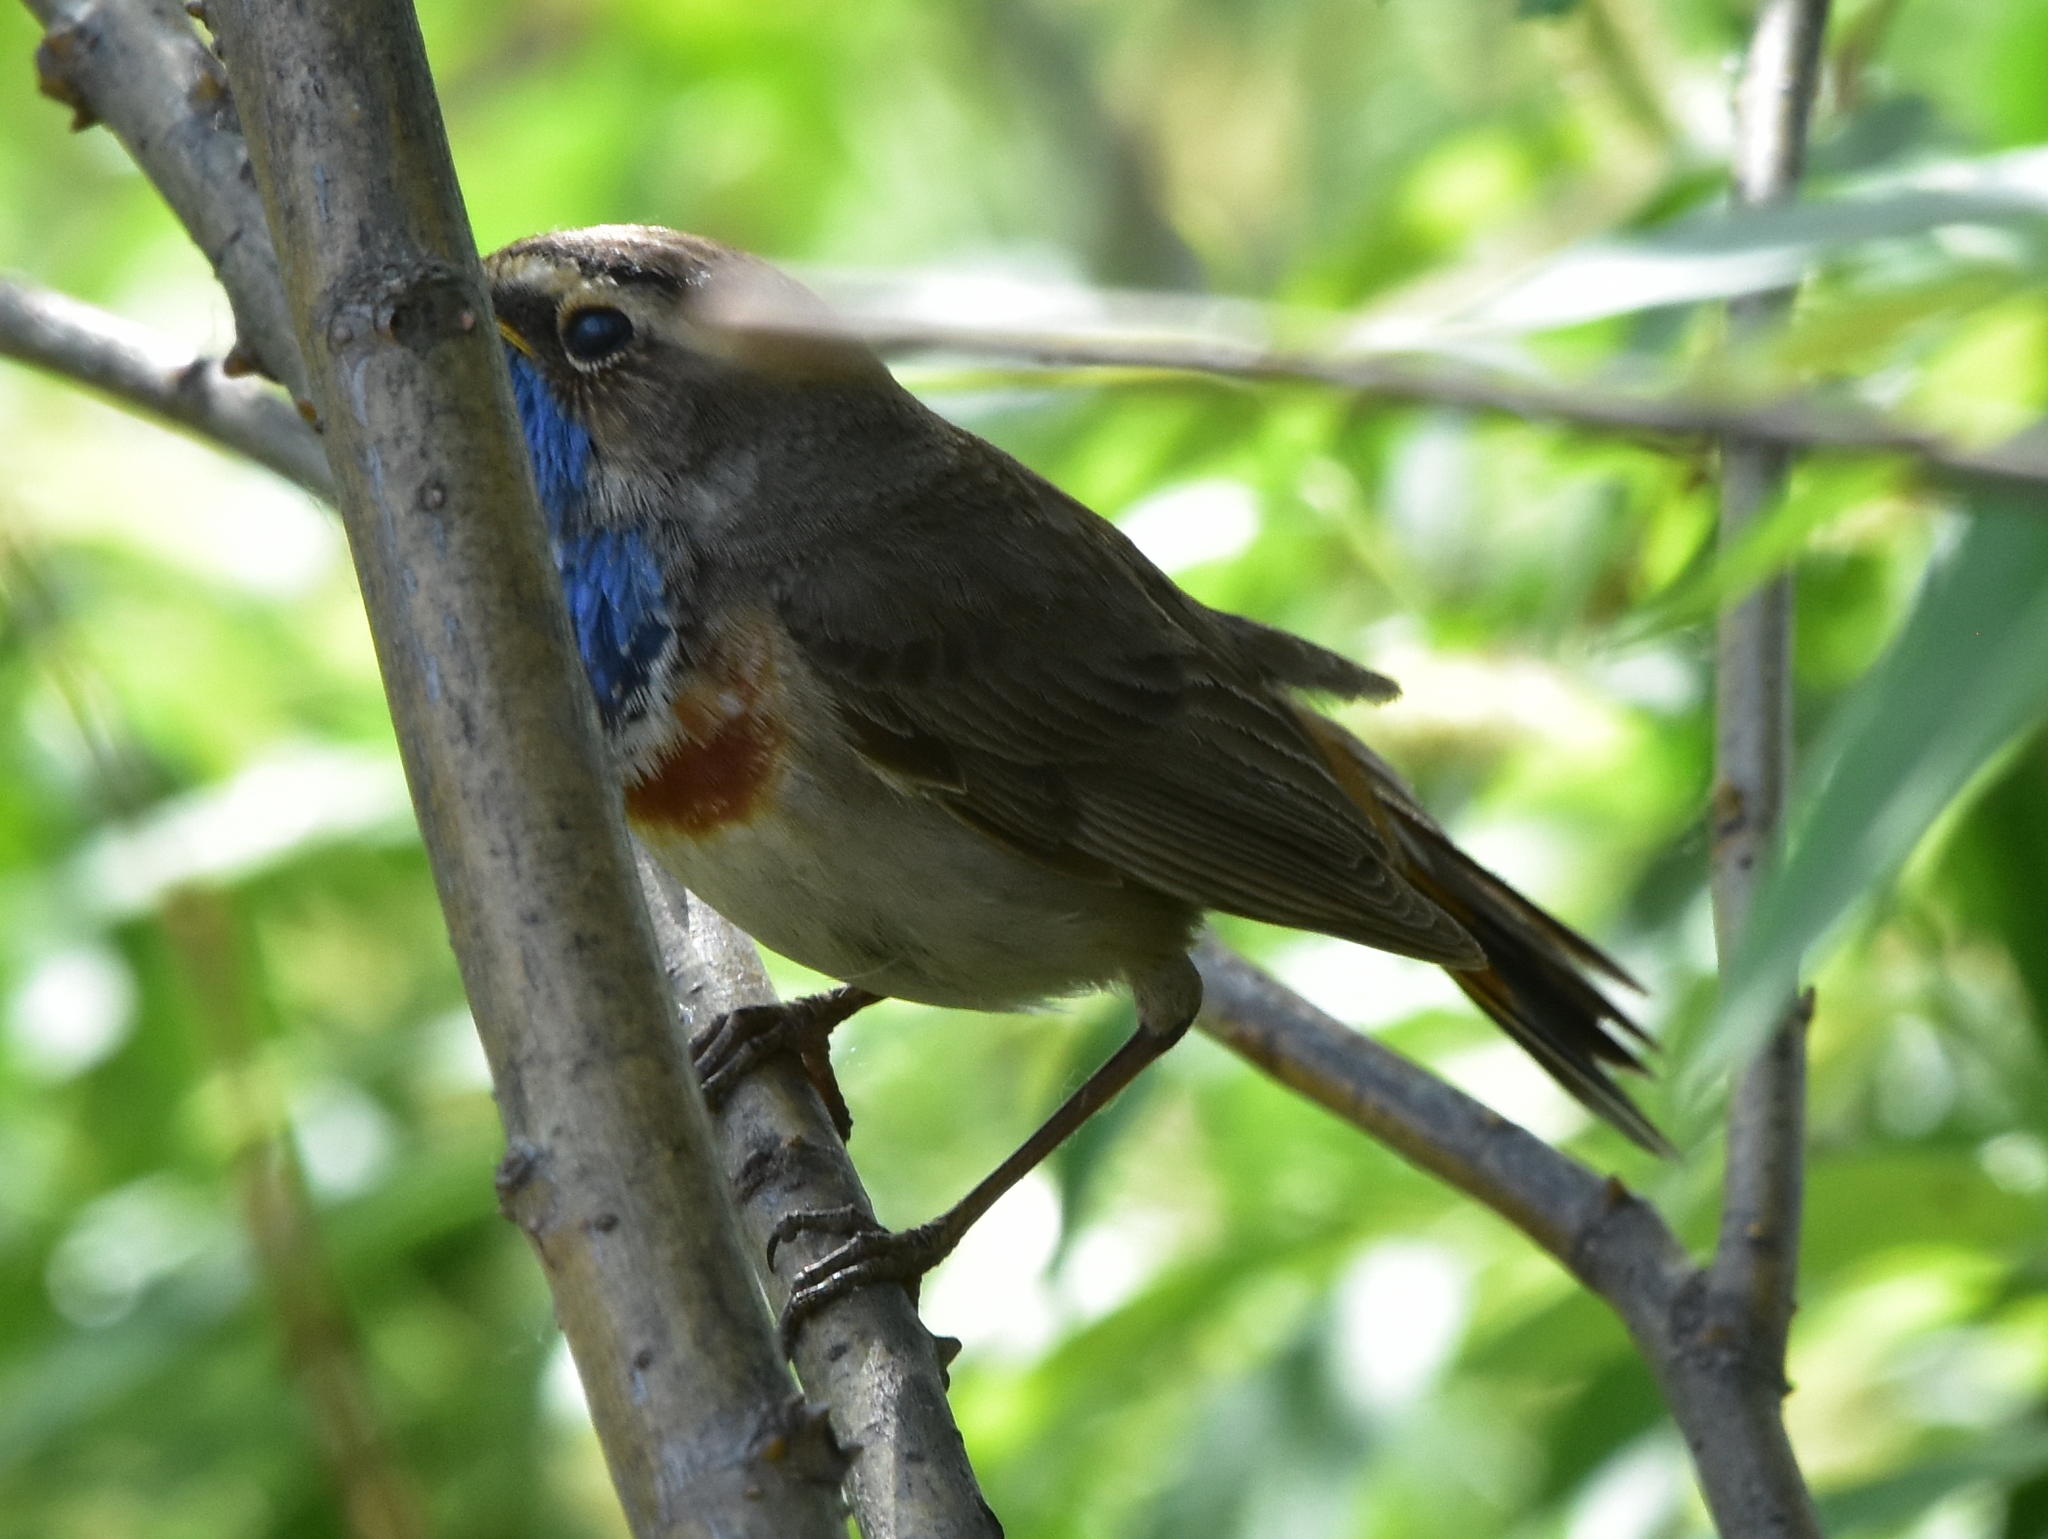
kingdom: Animalia
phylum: Chordata
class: Aves
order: Passeriformes
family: Muscicapidae
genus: Luscinia
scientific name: Luscinia svecica
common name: Bluethroat
